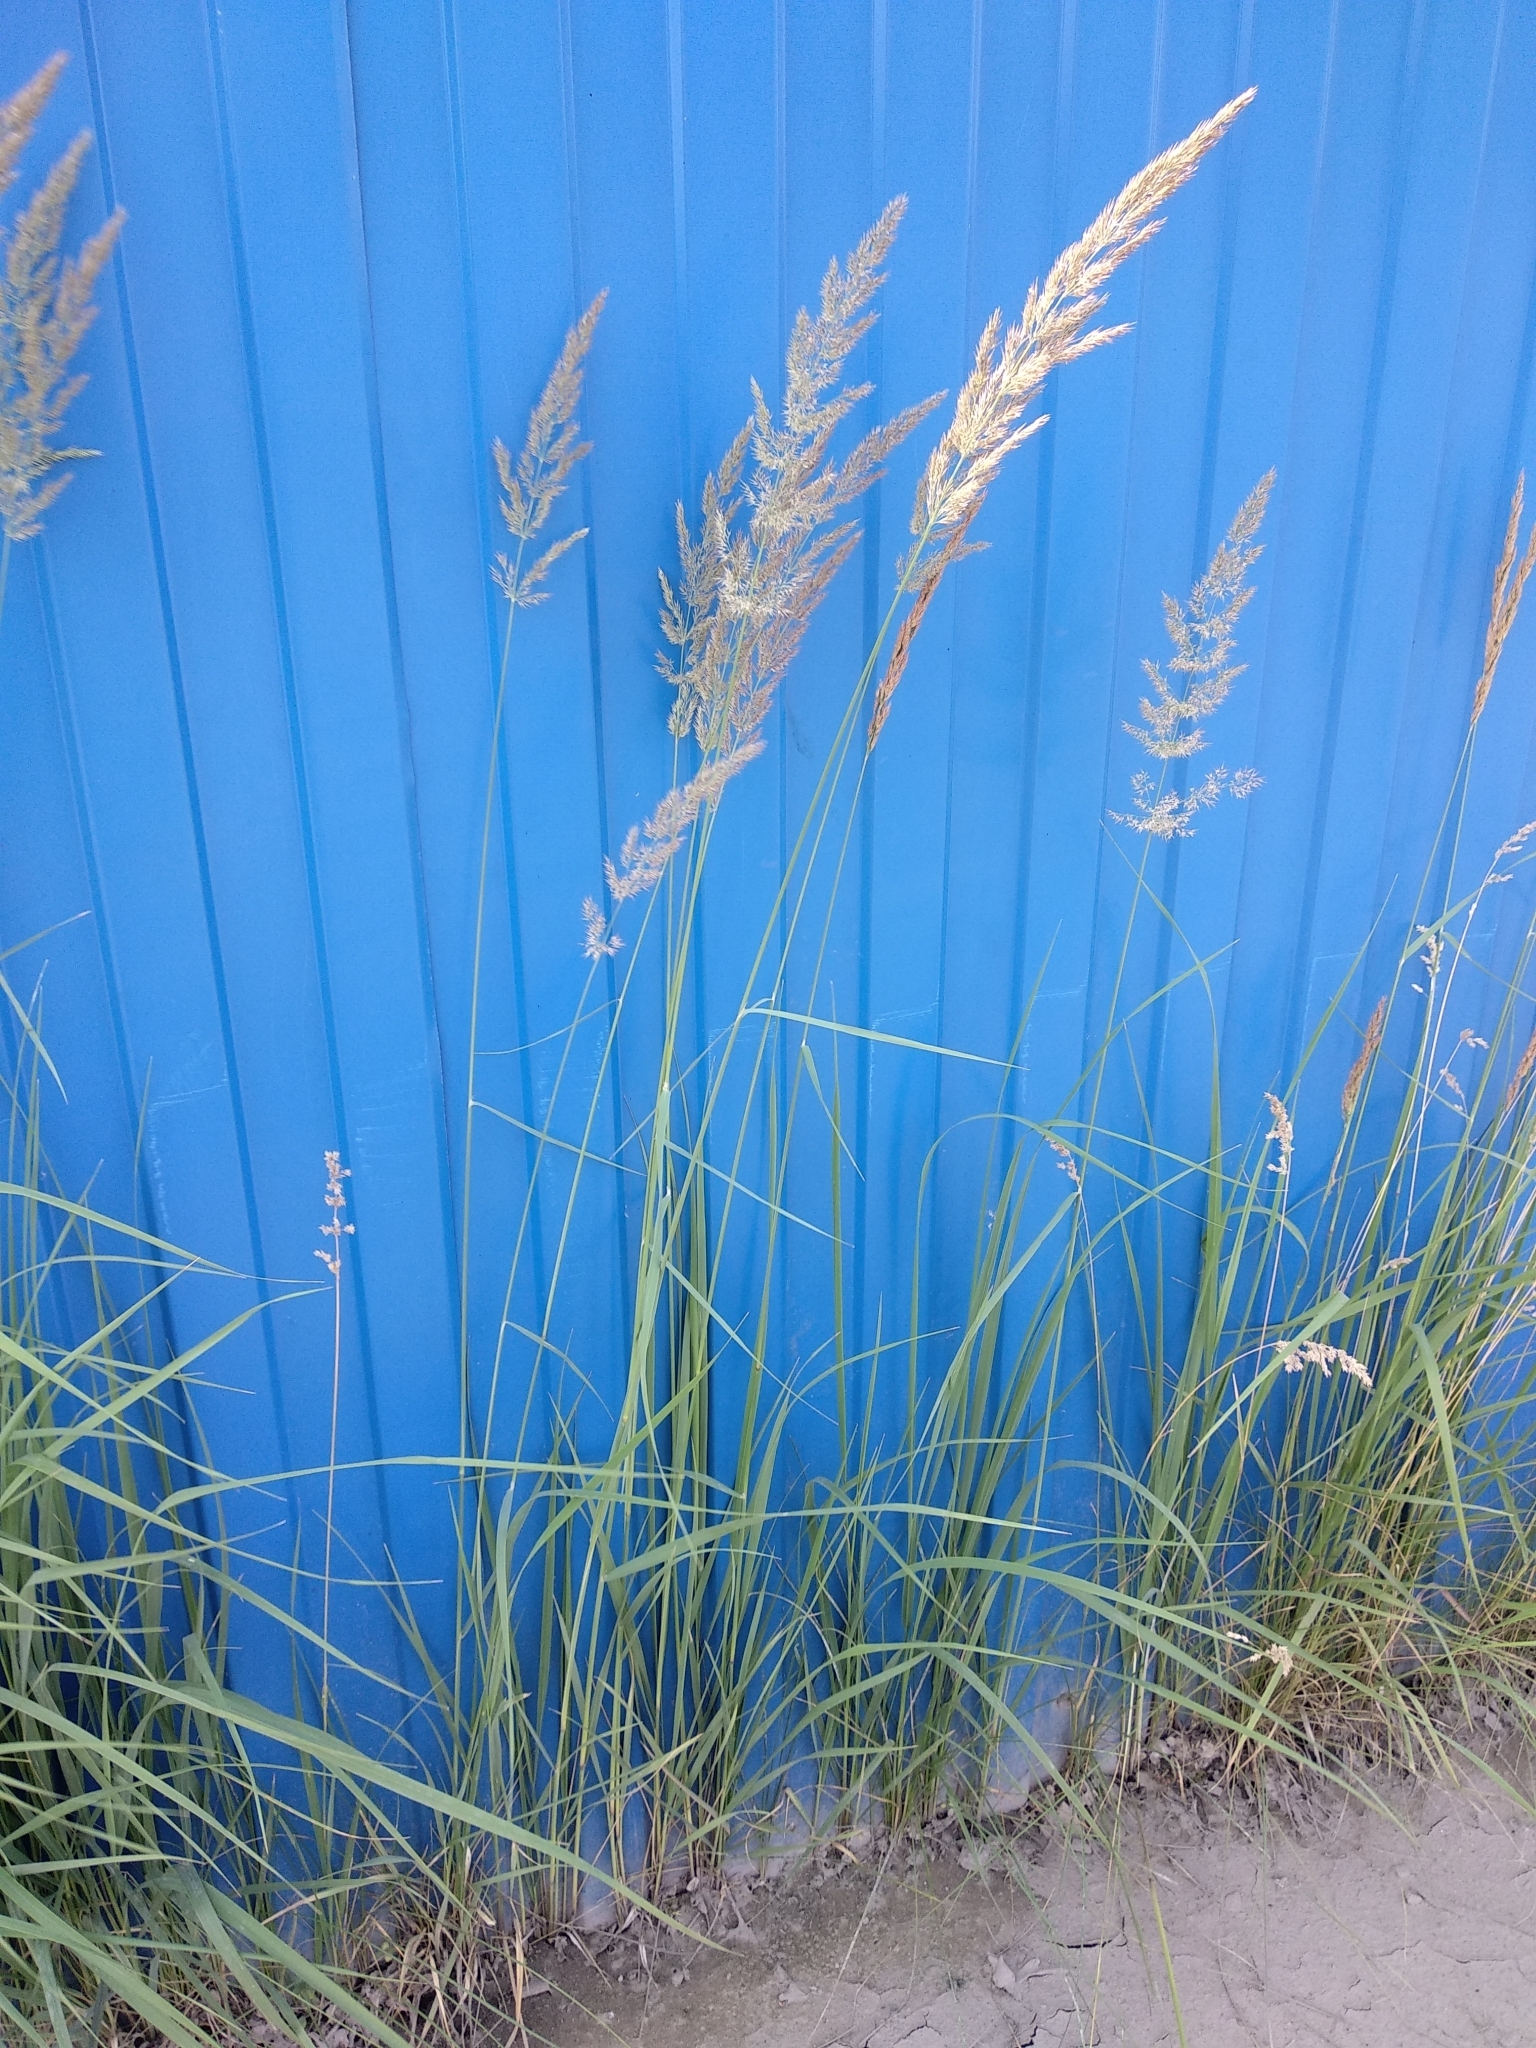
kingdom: Plantae
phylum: Tracheophyta
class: Liliopsida
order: Poales
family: Poaceae
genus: Calamagrostis
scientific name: Calamagrostis epigejos
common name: Wood small-reed
